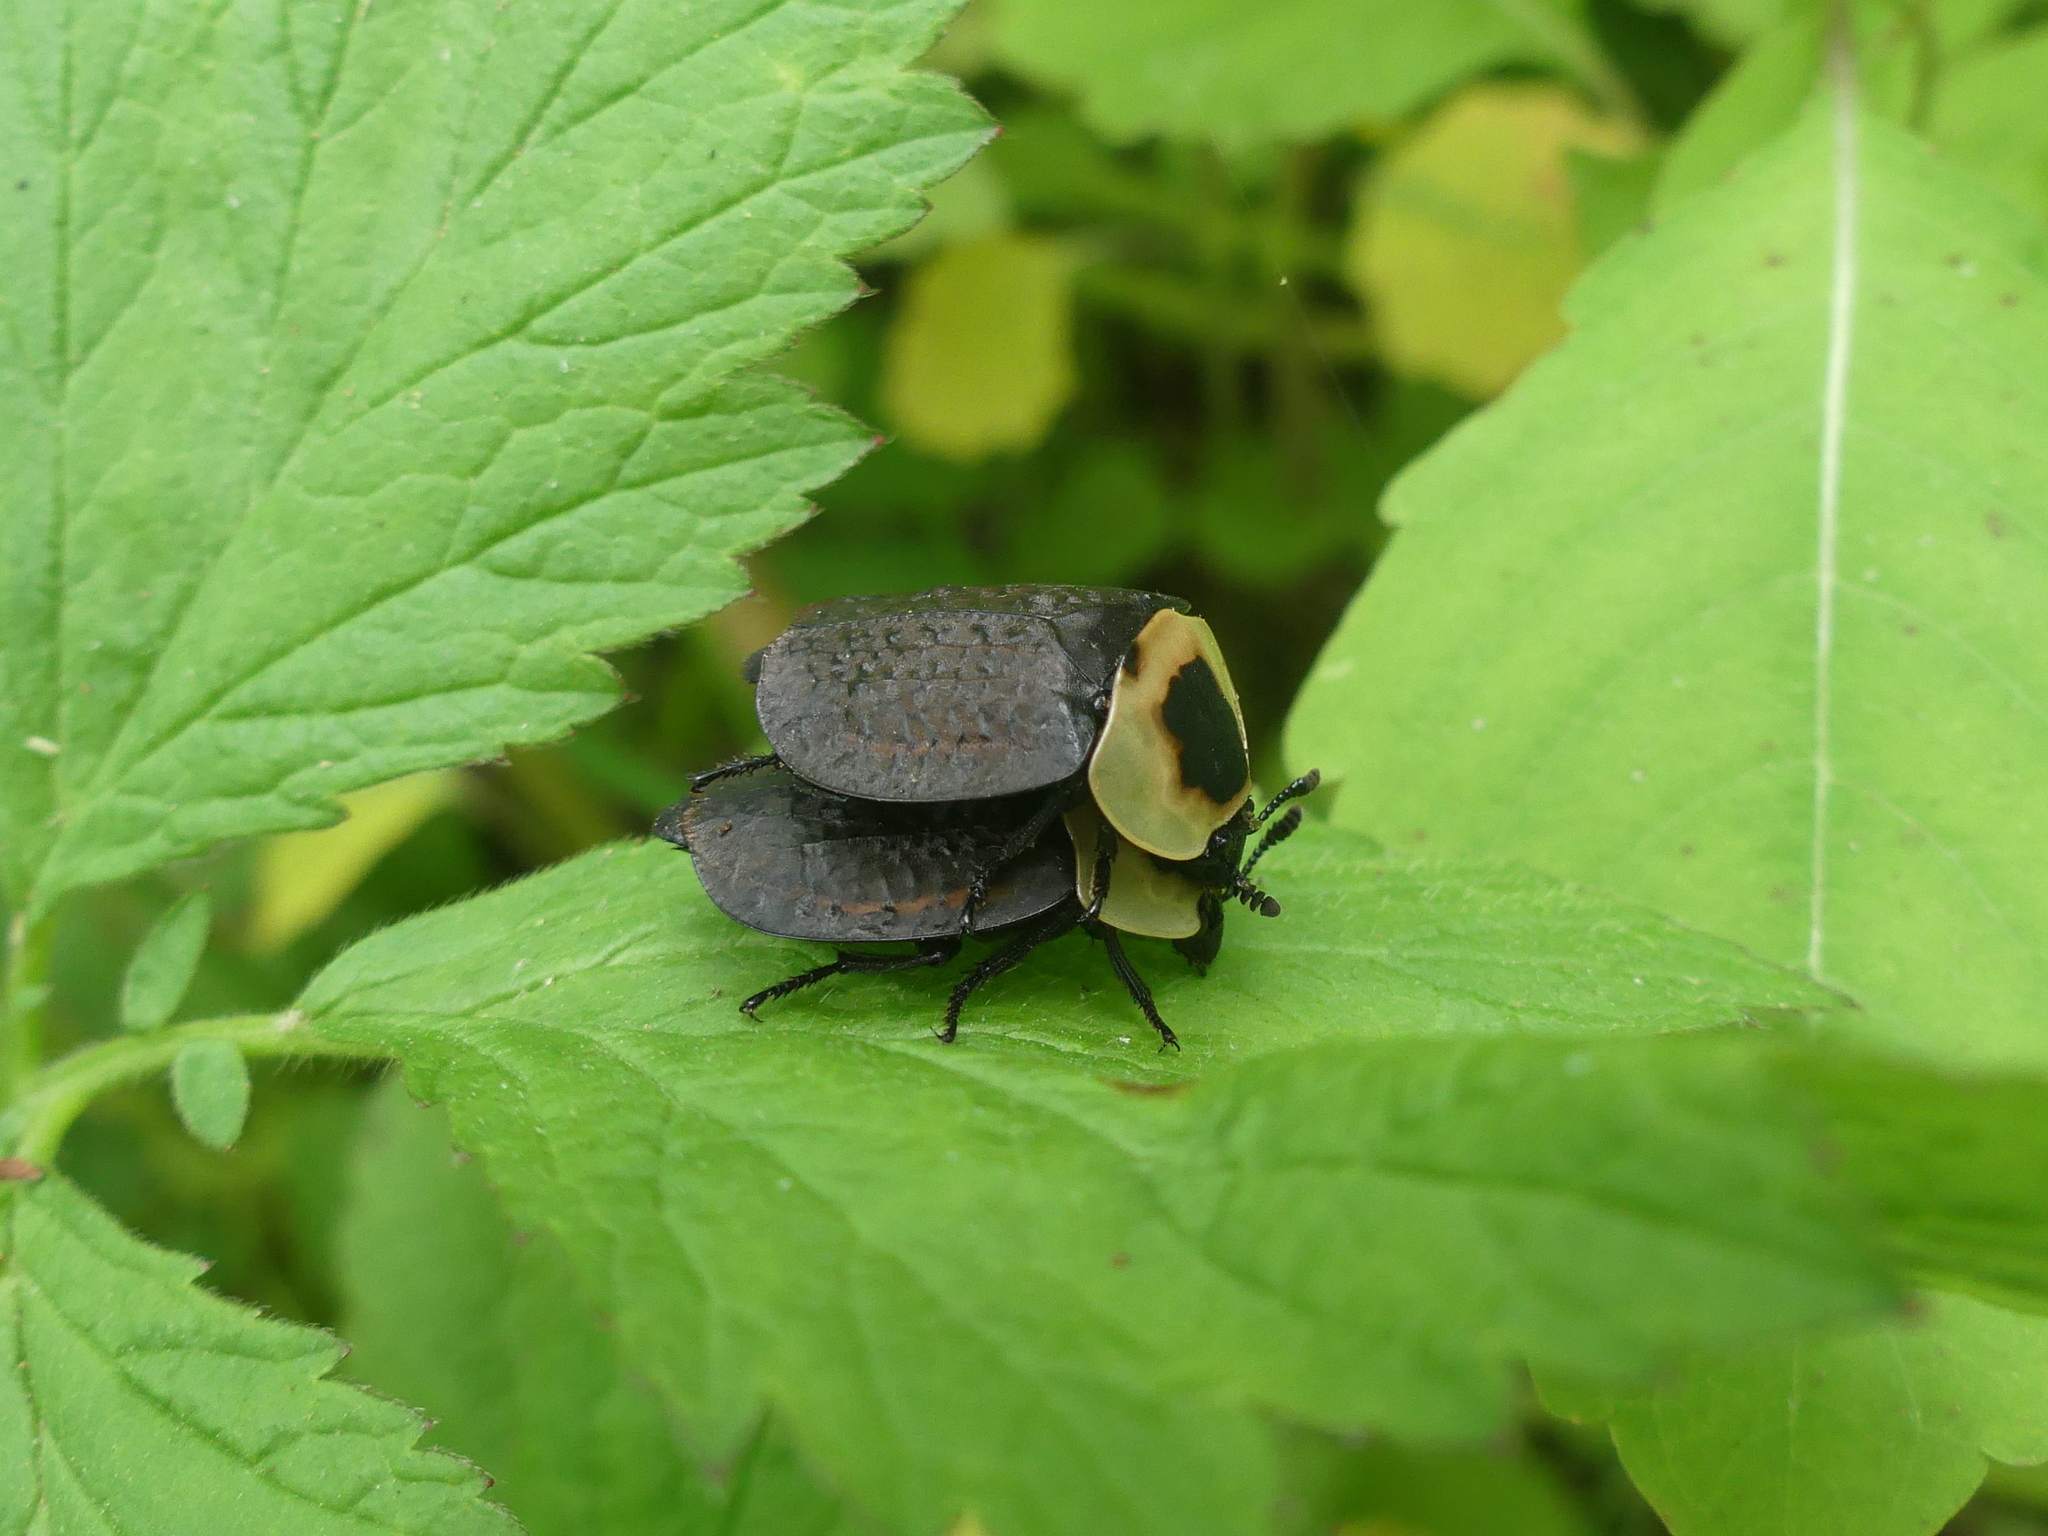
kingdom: Animalia
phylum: Arthropoda
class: Insecta
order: Coleoptera
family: Staphylinidae
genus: Necrophila
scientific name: Necrophila americana
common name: American carrion beetle
